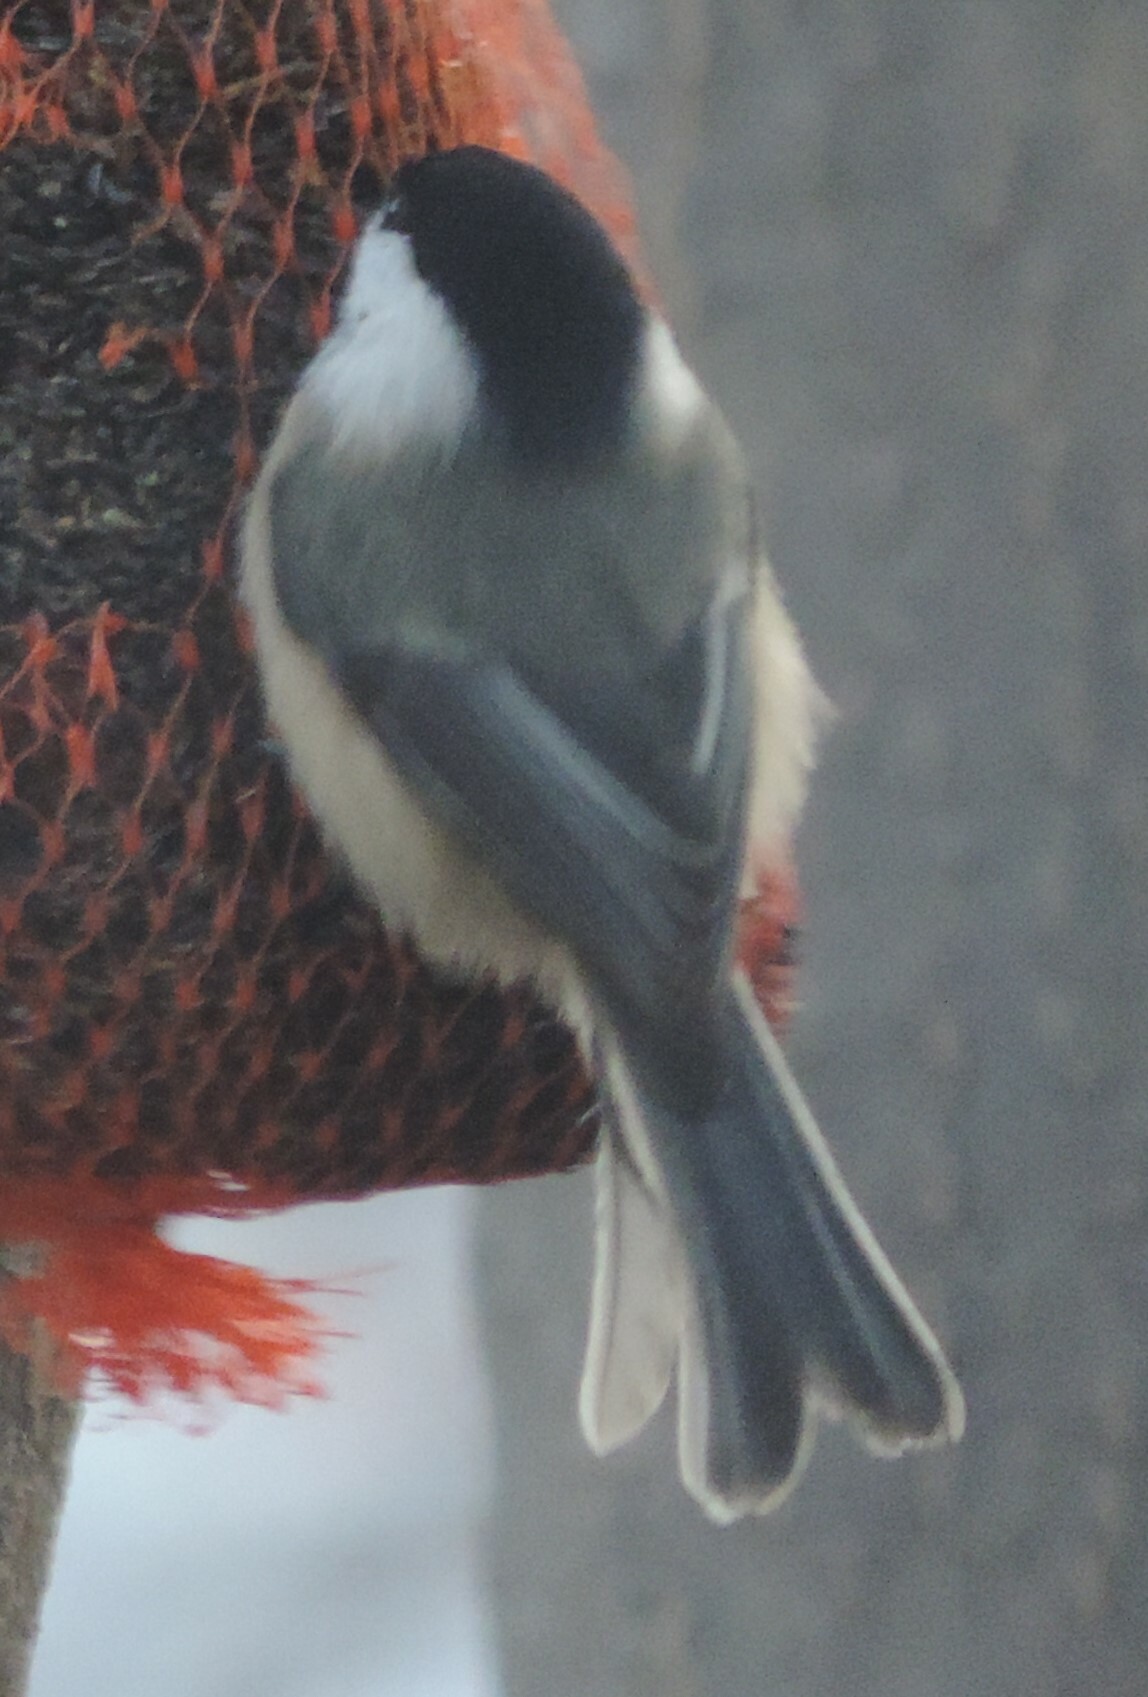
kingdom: Animalia
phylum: Chordata
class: Aves
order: Passeriformes
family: Paridae
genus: Poecile
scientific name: Poecile atricapillus
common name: Black-capped chickadee
